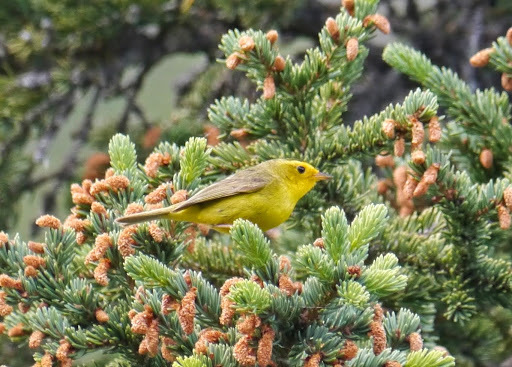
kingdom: Animalia
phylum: Chordata
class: Aves
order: Passeriformes
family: Parulidae
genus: Cardellina
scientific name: Cardellina pusilla
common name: Wilson's warbler
